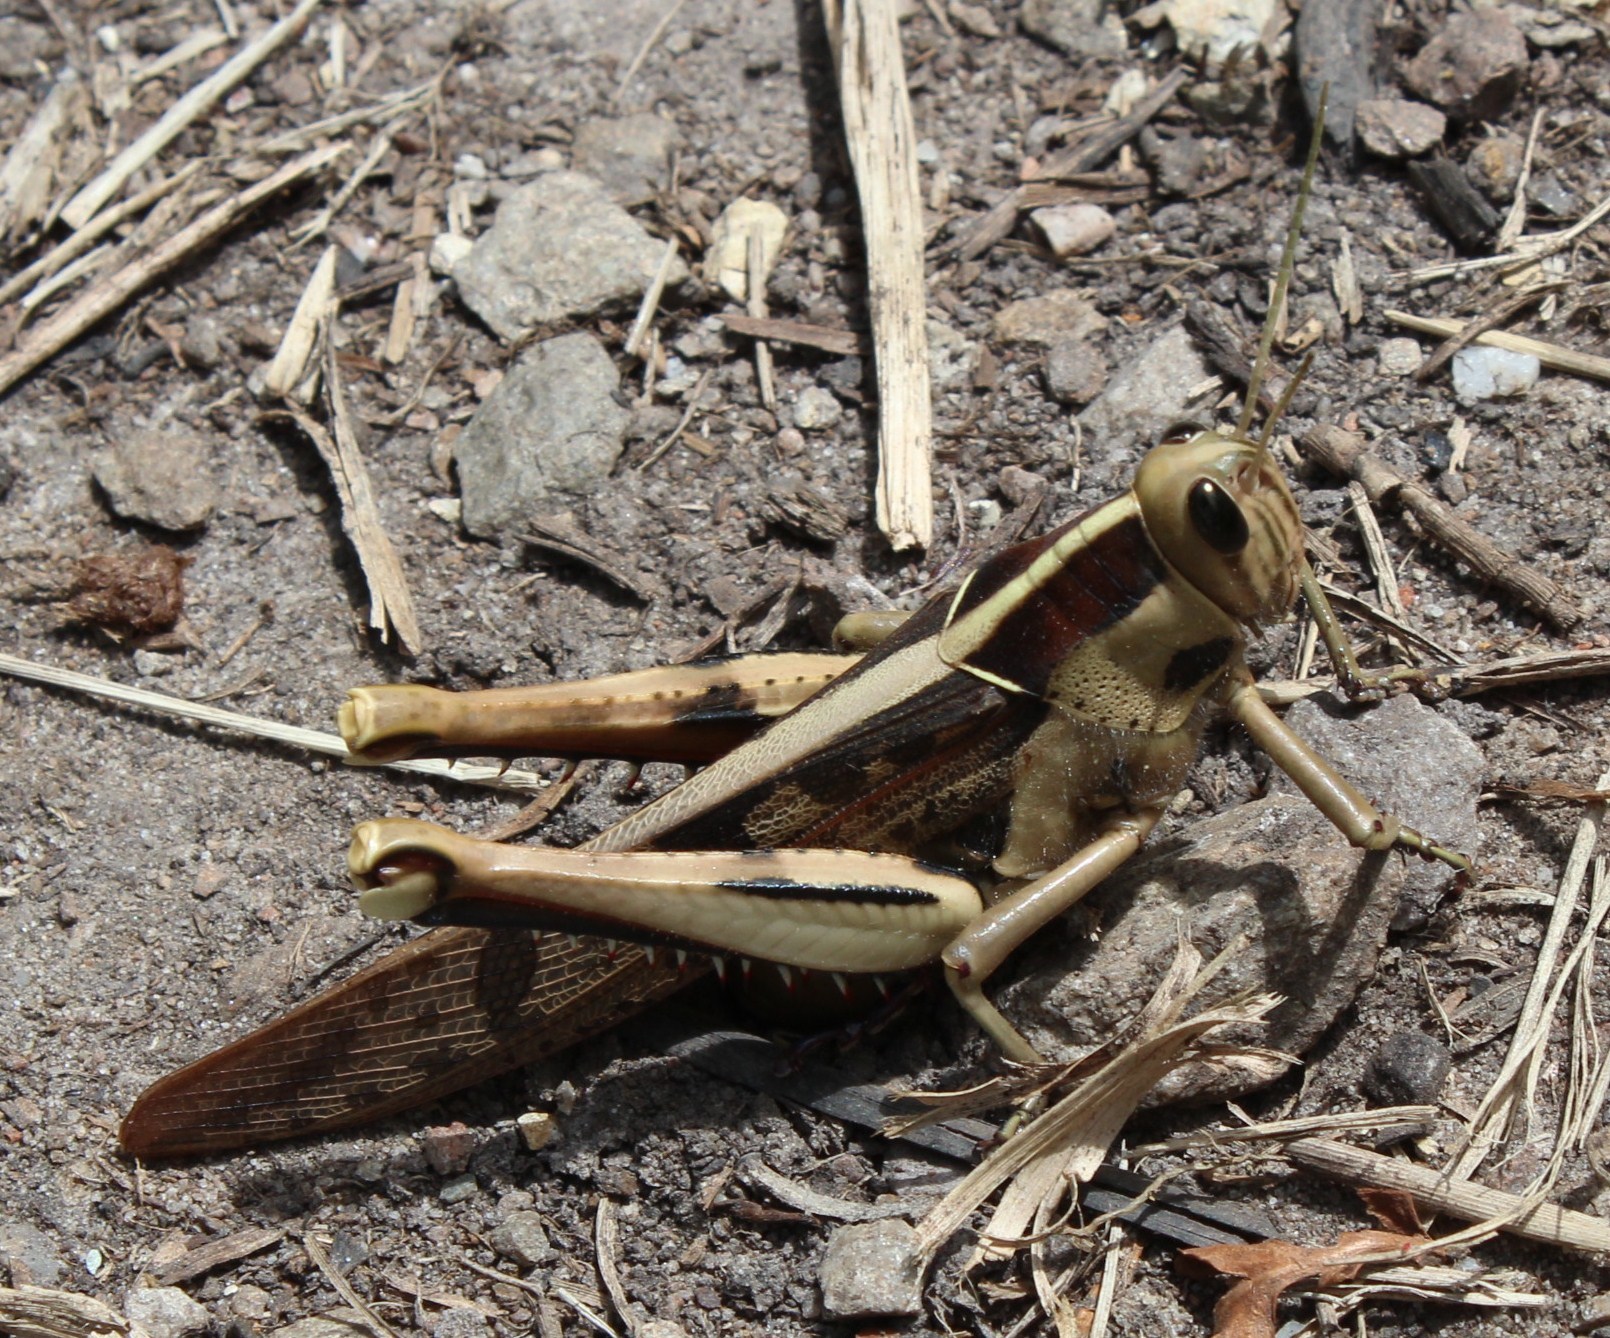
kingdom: Animalia
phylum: Arthropoda
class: Insecta
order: Orthoptera
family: Acrididae
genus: Acanthacris
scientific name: Acanthacris ruficornis
